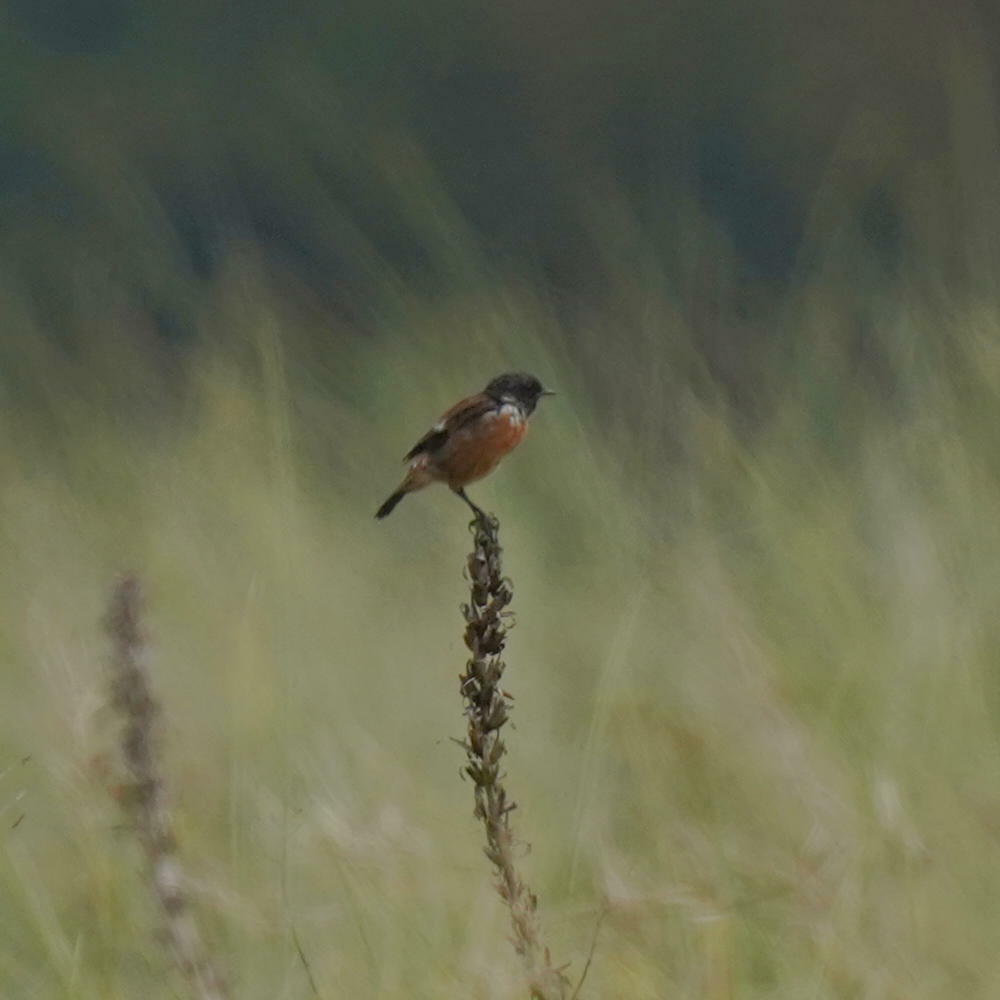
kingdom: Animalia
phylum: Chordata
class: Aves
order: Passeriformes
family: Muscicapidae
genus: Saxicola
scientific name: Saxicola rubicola
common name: European stonechat
